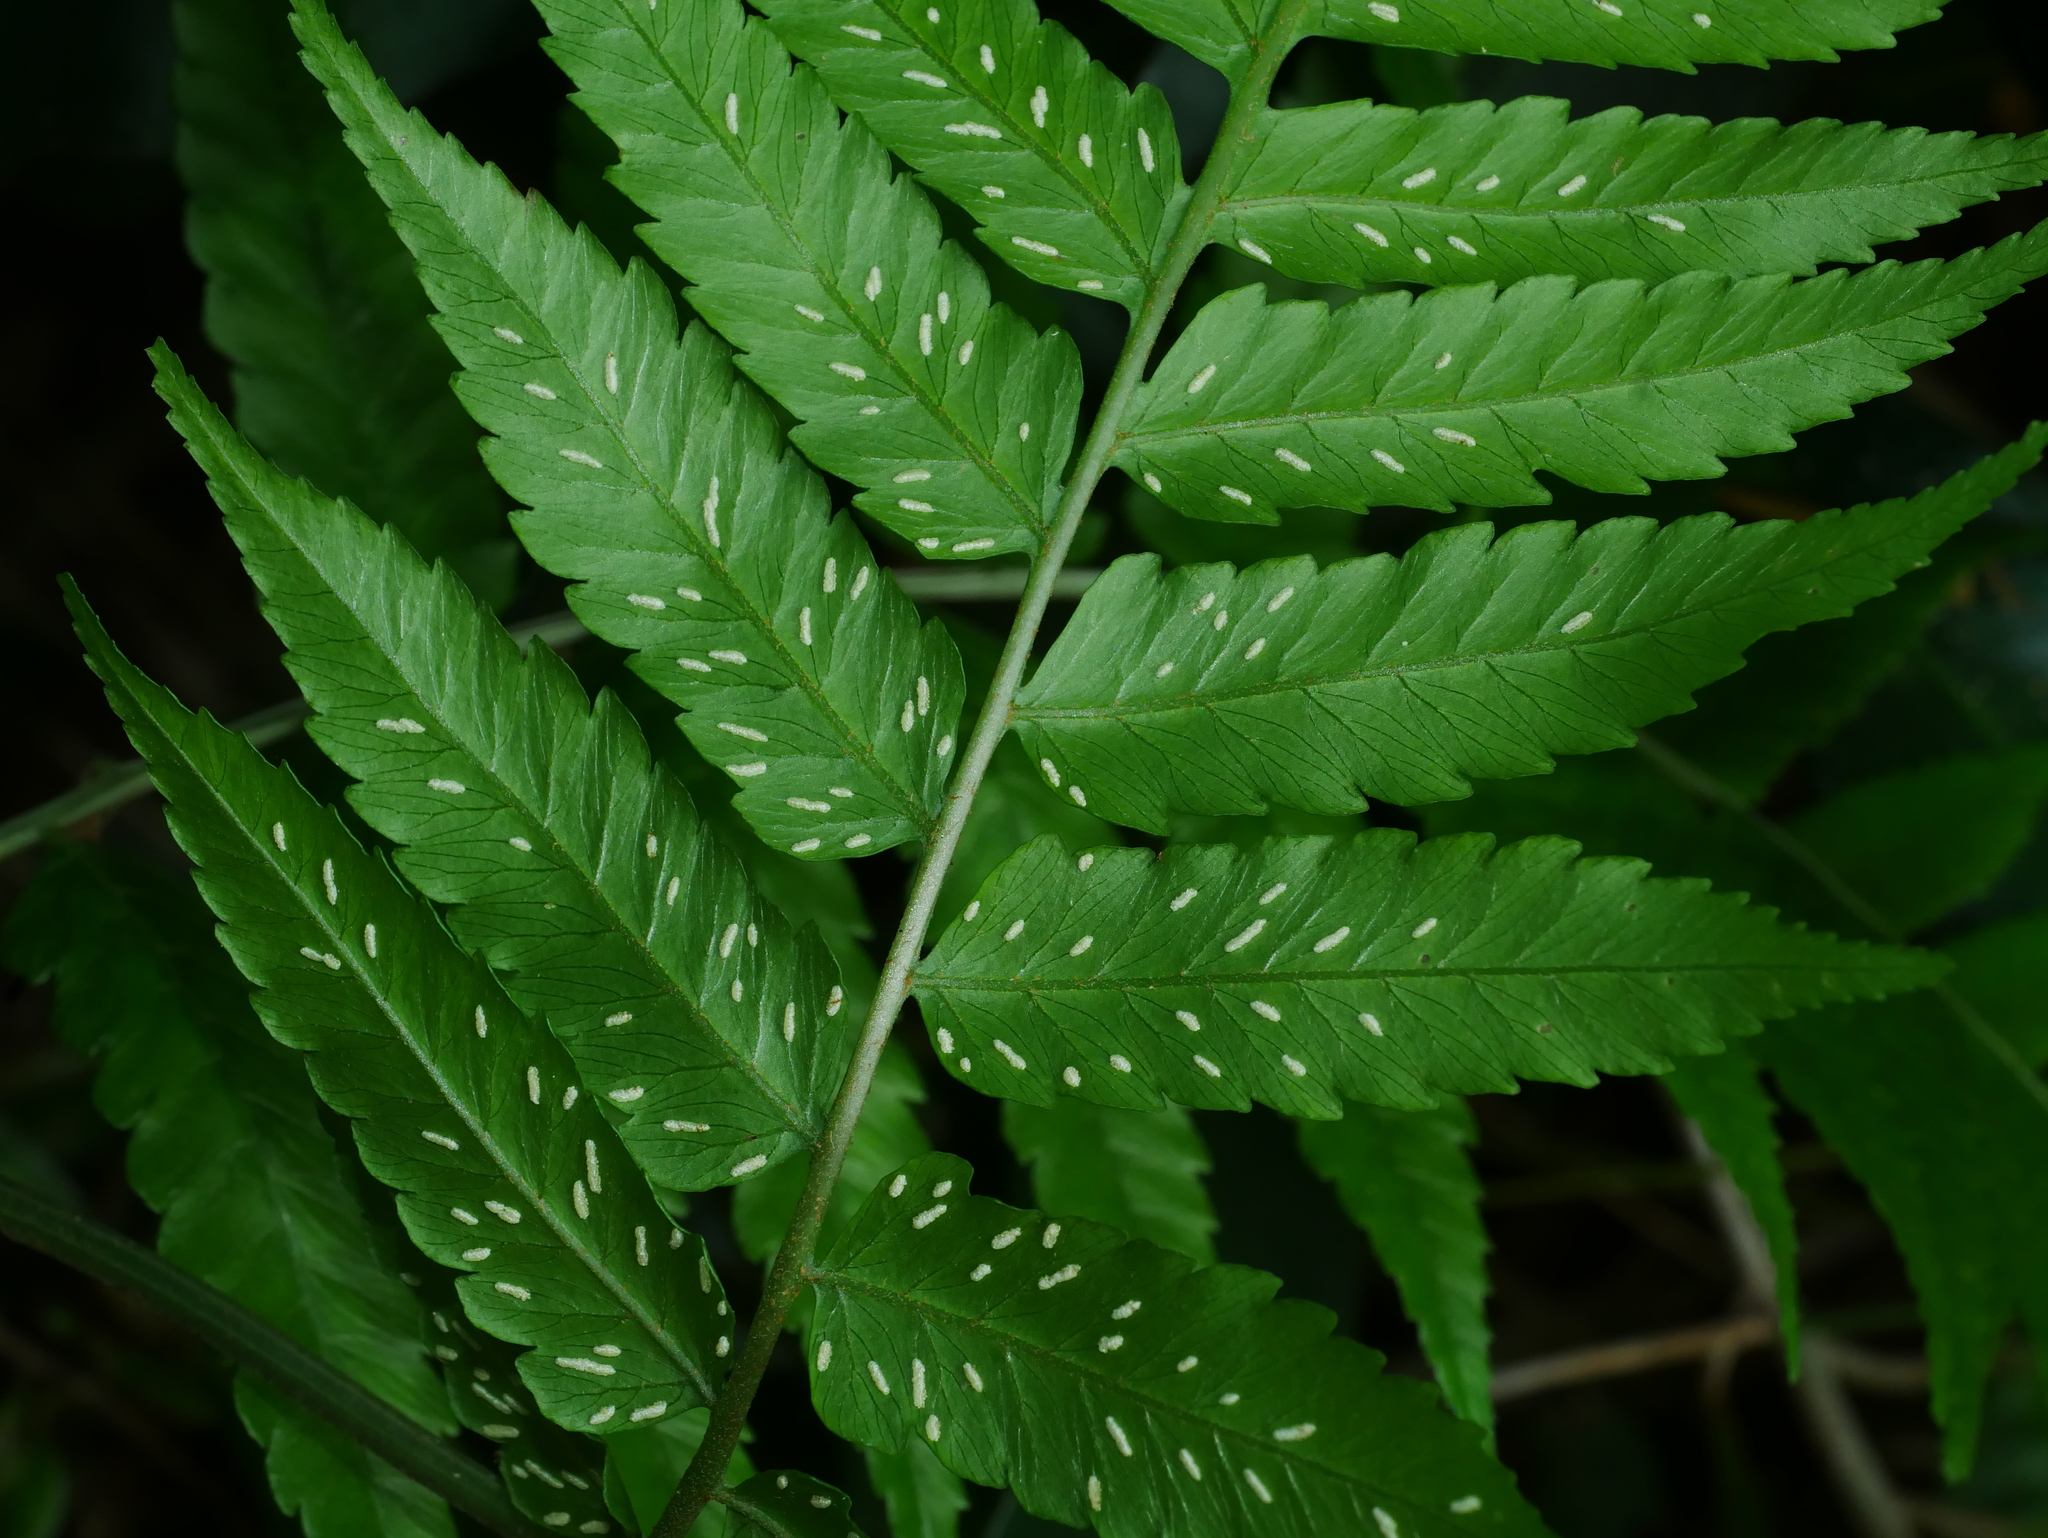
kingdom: Plantae
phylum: Tracheophyta
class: Polypodiopsida
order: Polypodiales
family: Athyriaceae
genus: Diplazium
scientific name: Diplazium taiwanense
